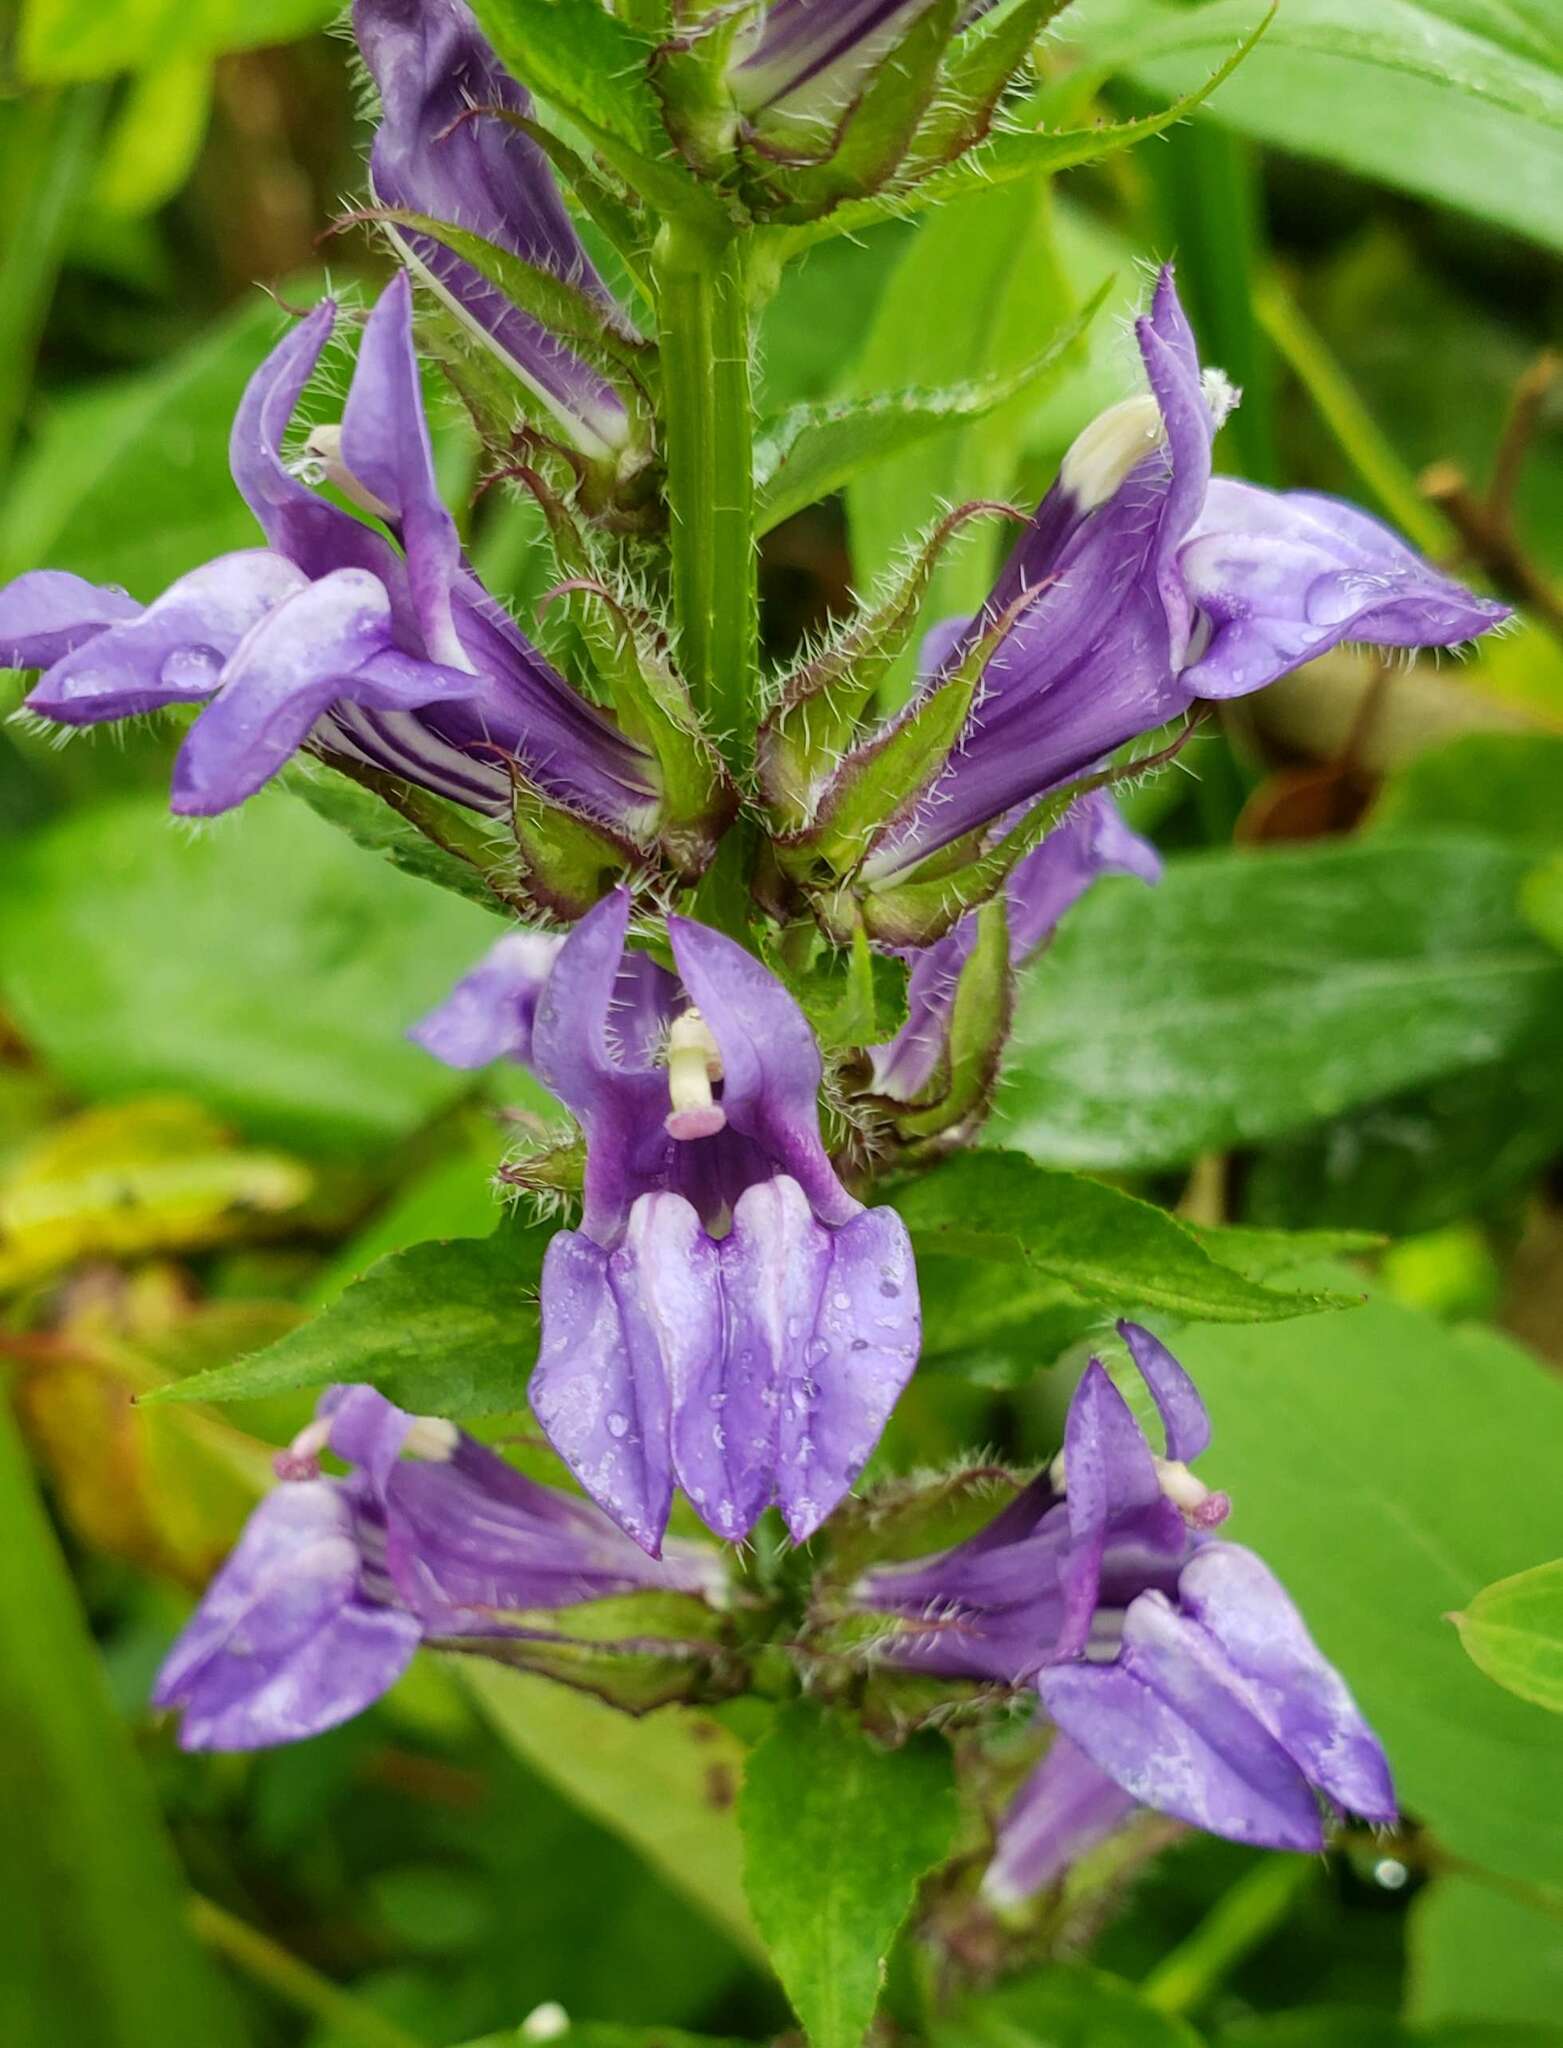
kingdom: Plantae
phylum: Tracheophyta
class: Magnoliopsida
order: Asterales
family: Campanulaceae
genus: Lobelia
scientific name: Lobelia siphilitica
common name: Great lobelia
